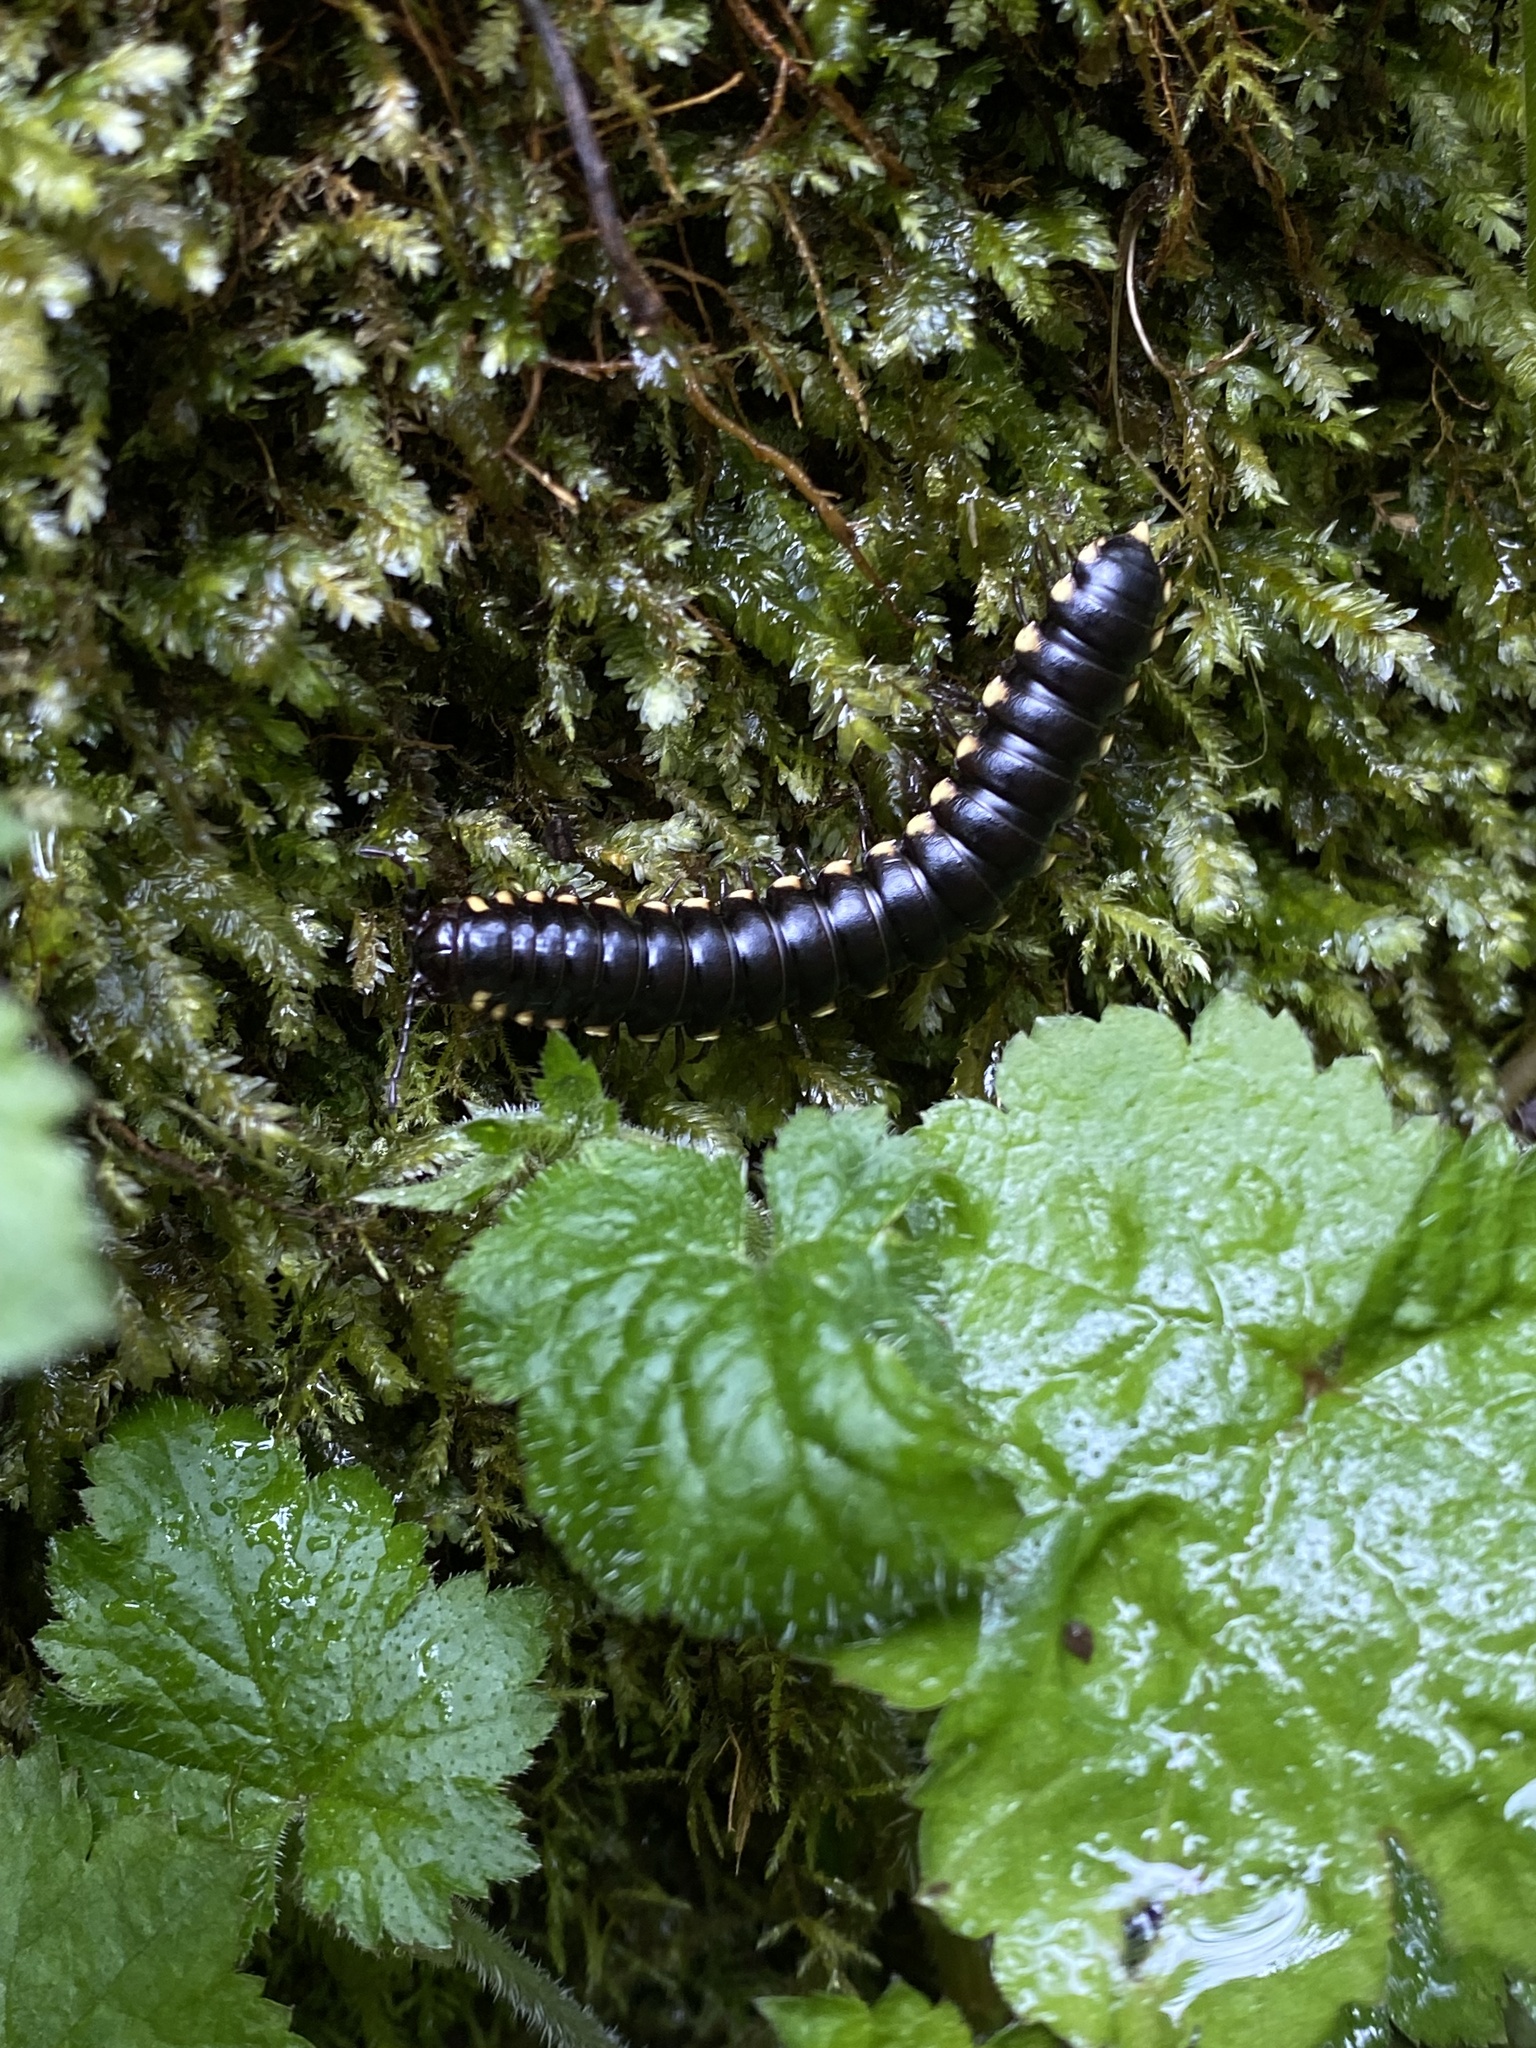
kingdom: Animalia
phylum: Arthropoda
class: Diplopoda
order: Polydesmida
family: Xystodesmidae
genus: Harpaphe
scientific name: Harpaphe haydeniana
